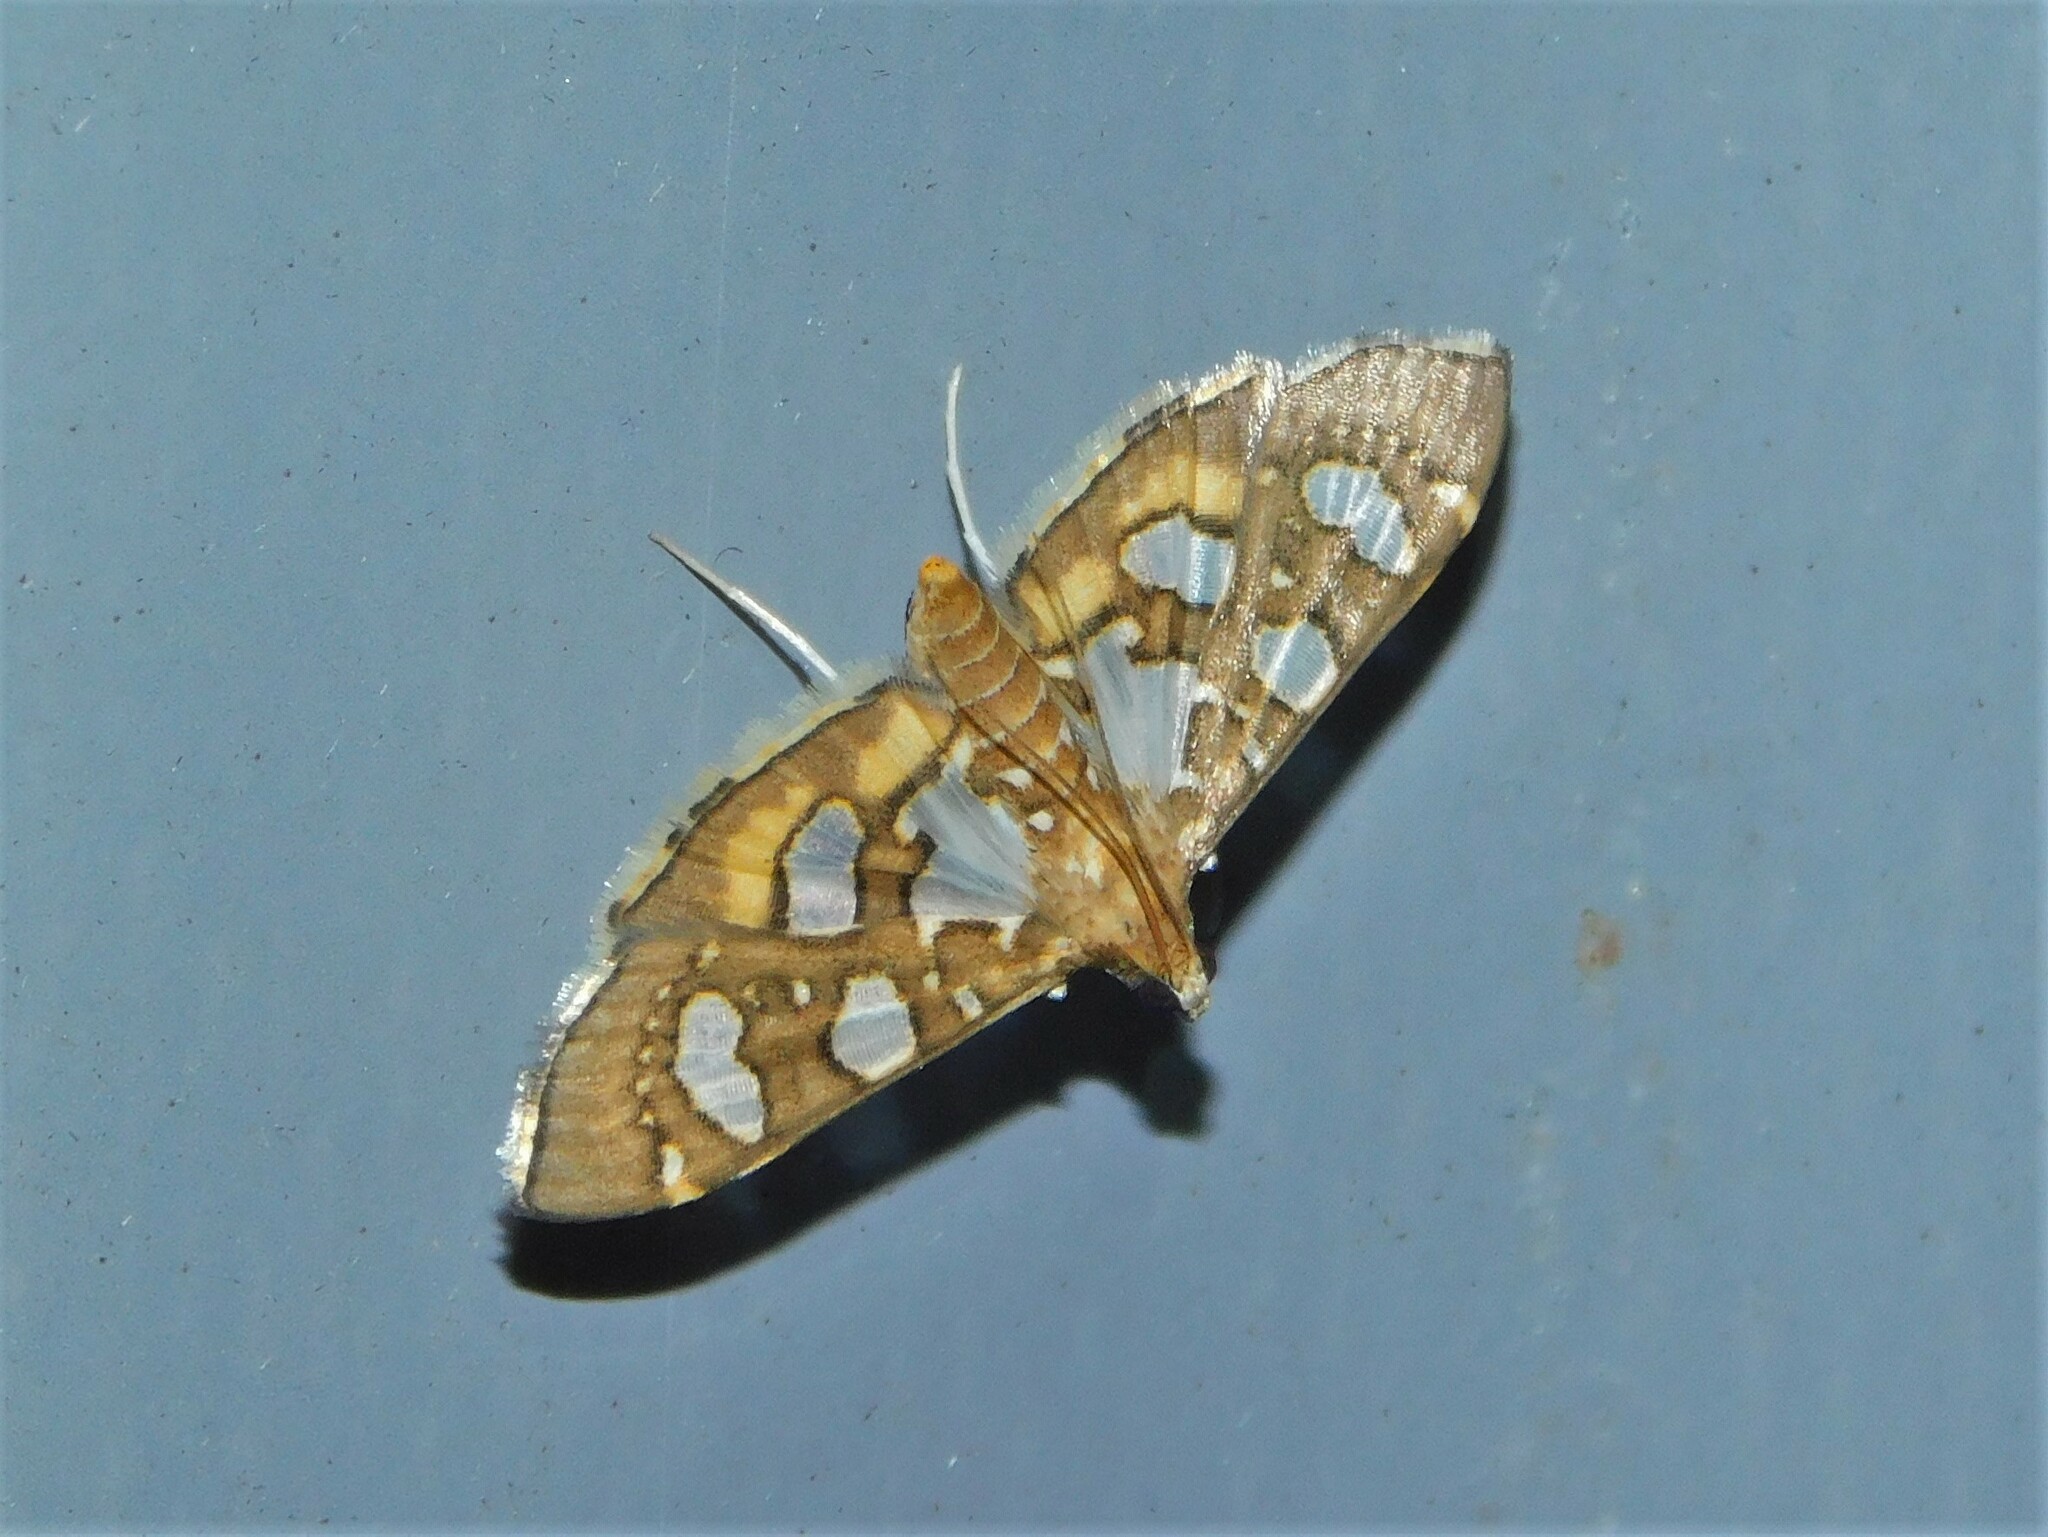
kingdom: Animalia
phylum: Arthropoda
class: Insecta
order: Lepidoptera
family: Crambidae
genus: Nausinoe
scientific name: Nausinoe quadrinalis
